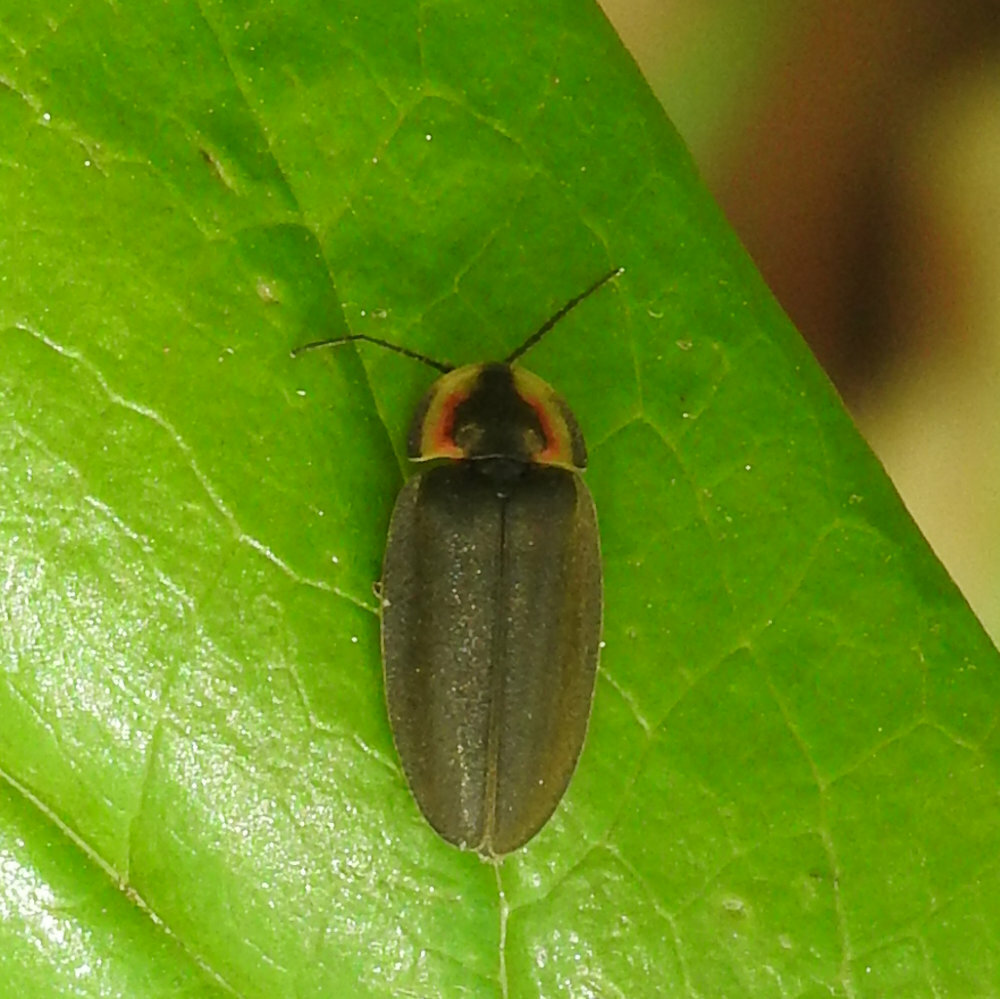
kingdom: Animalia
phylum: Arthropoda
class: Insecta
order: Coleoptera
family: Lampyridae
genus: Photinus
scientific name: Photinus corrusca
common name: Winter firefly
